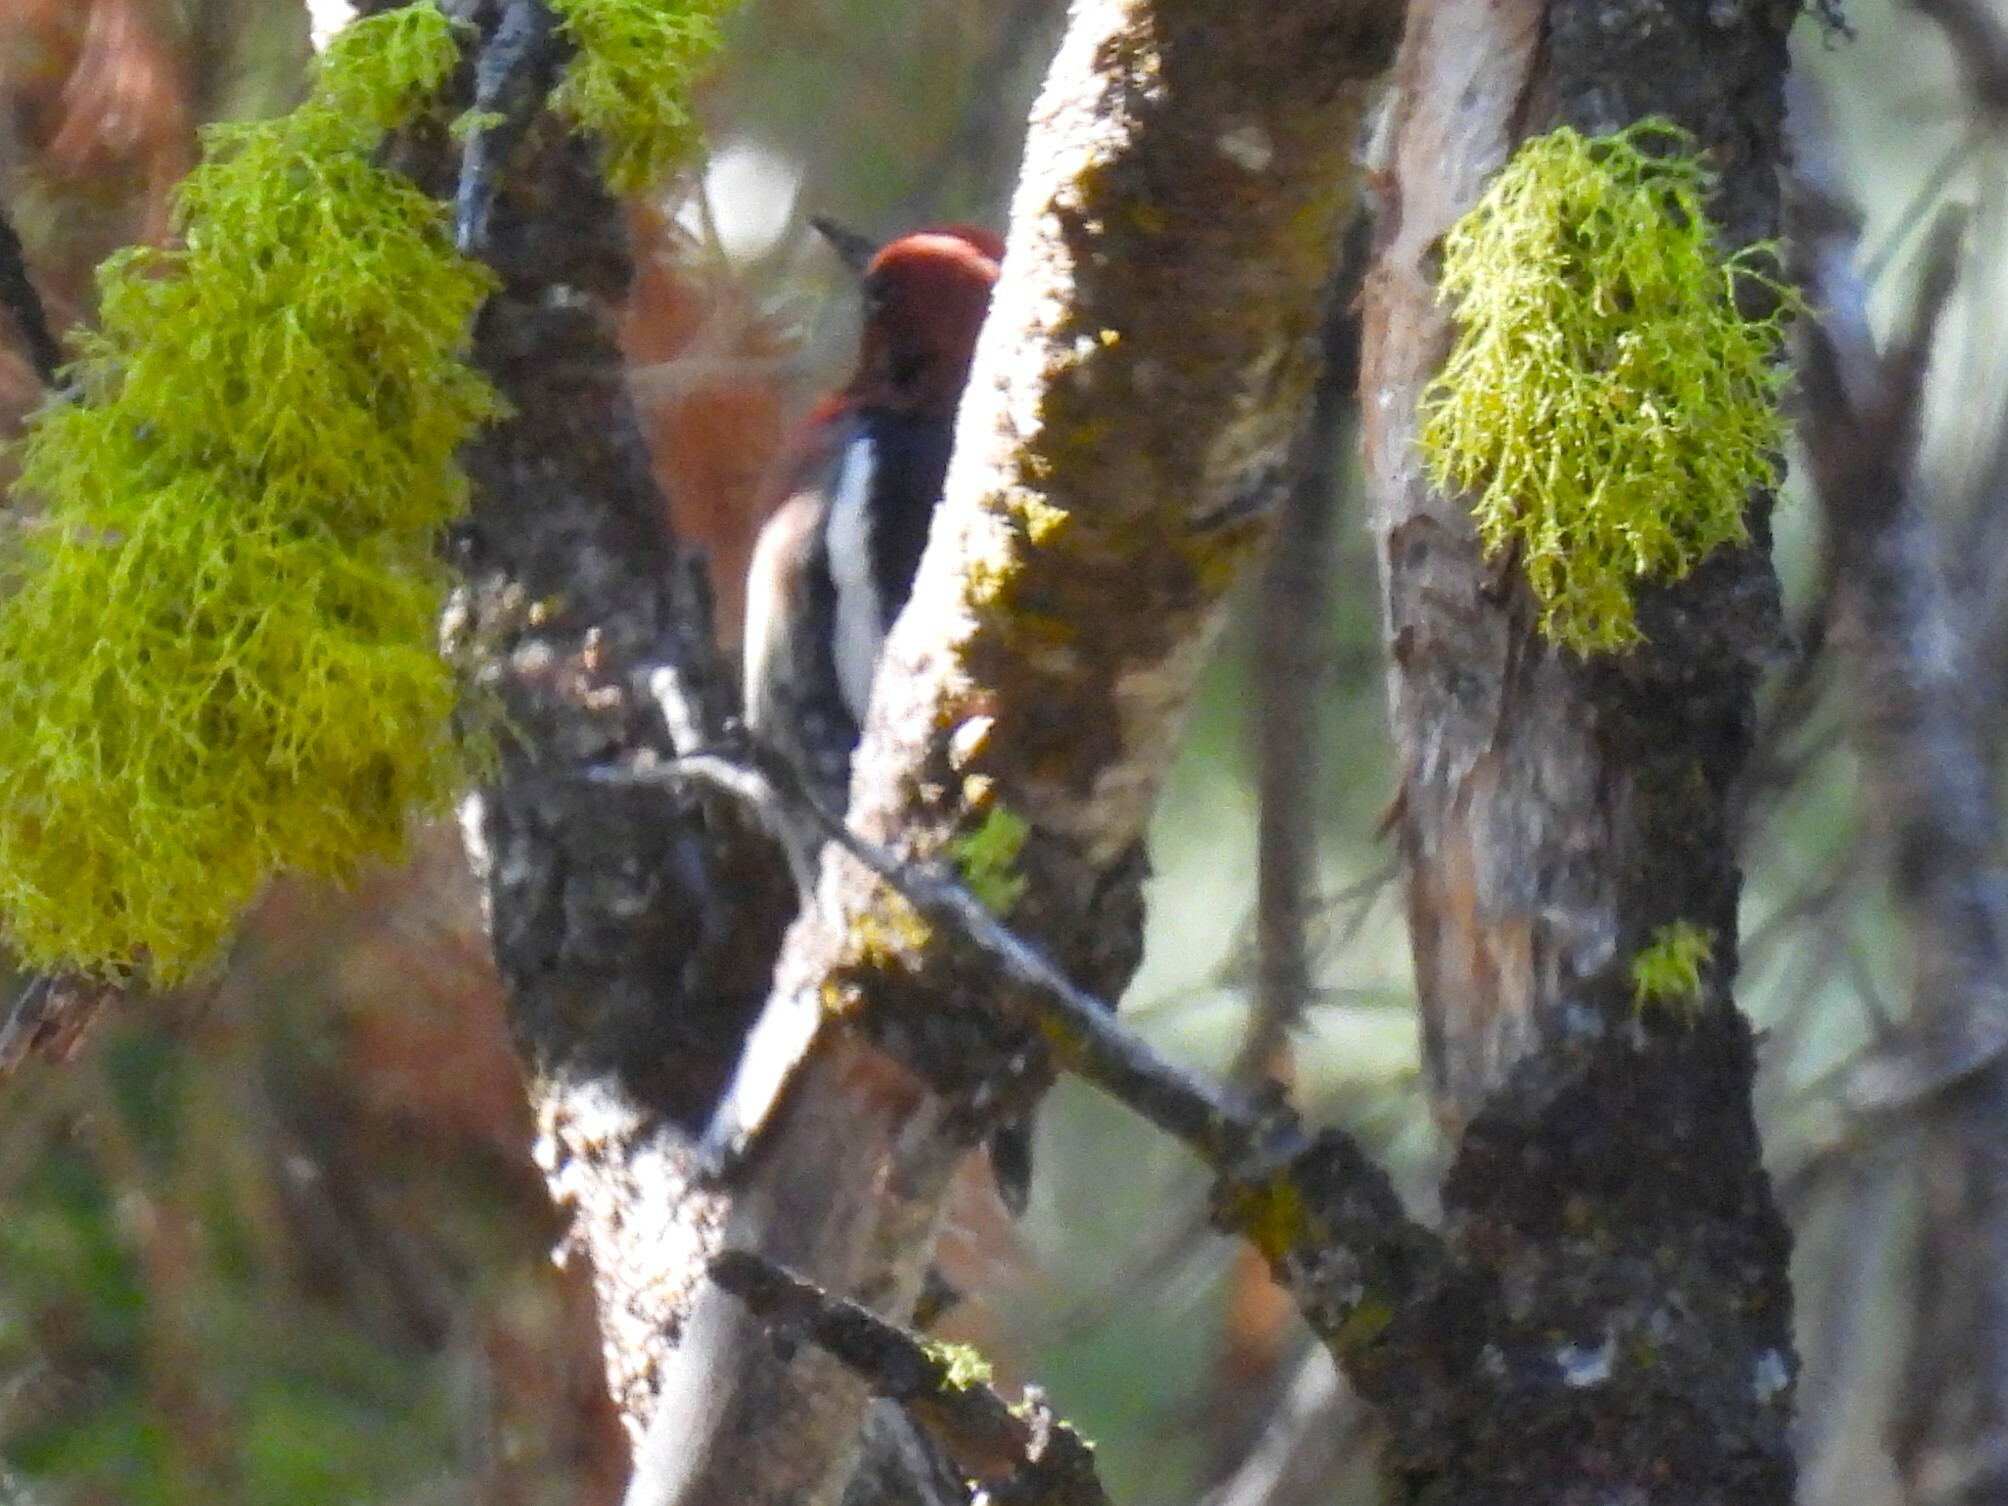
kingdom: Animalia
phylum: Chordata
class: Aves
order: Piciformes
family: Picidae
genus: Sphyrapicus
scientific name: Sphyrapicus ruber
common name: Red-breasted sapsucker
